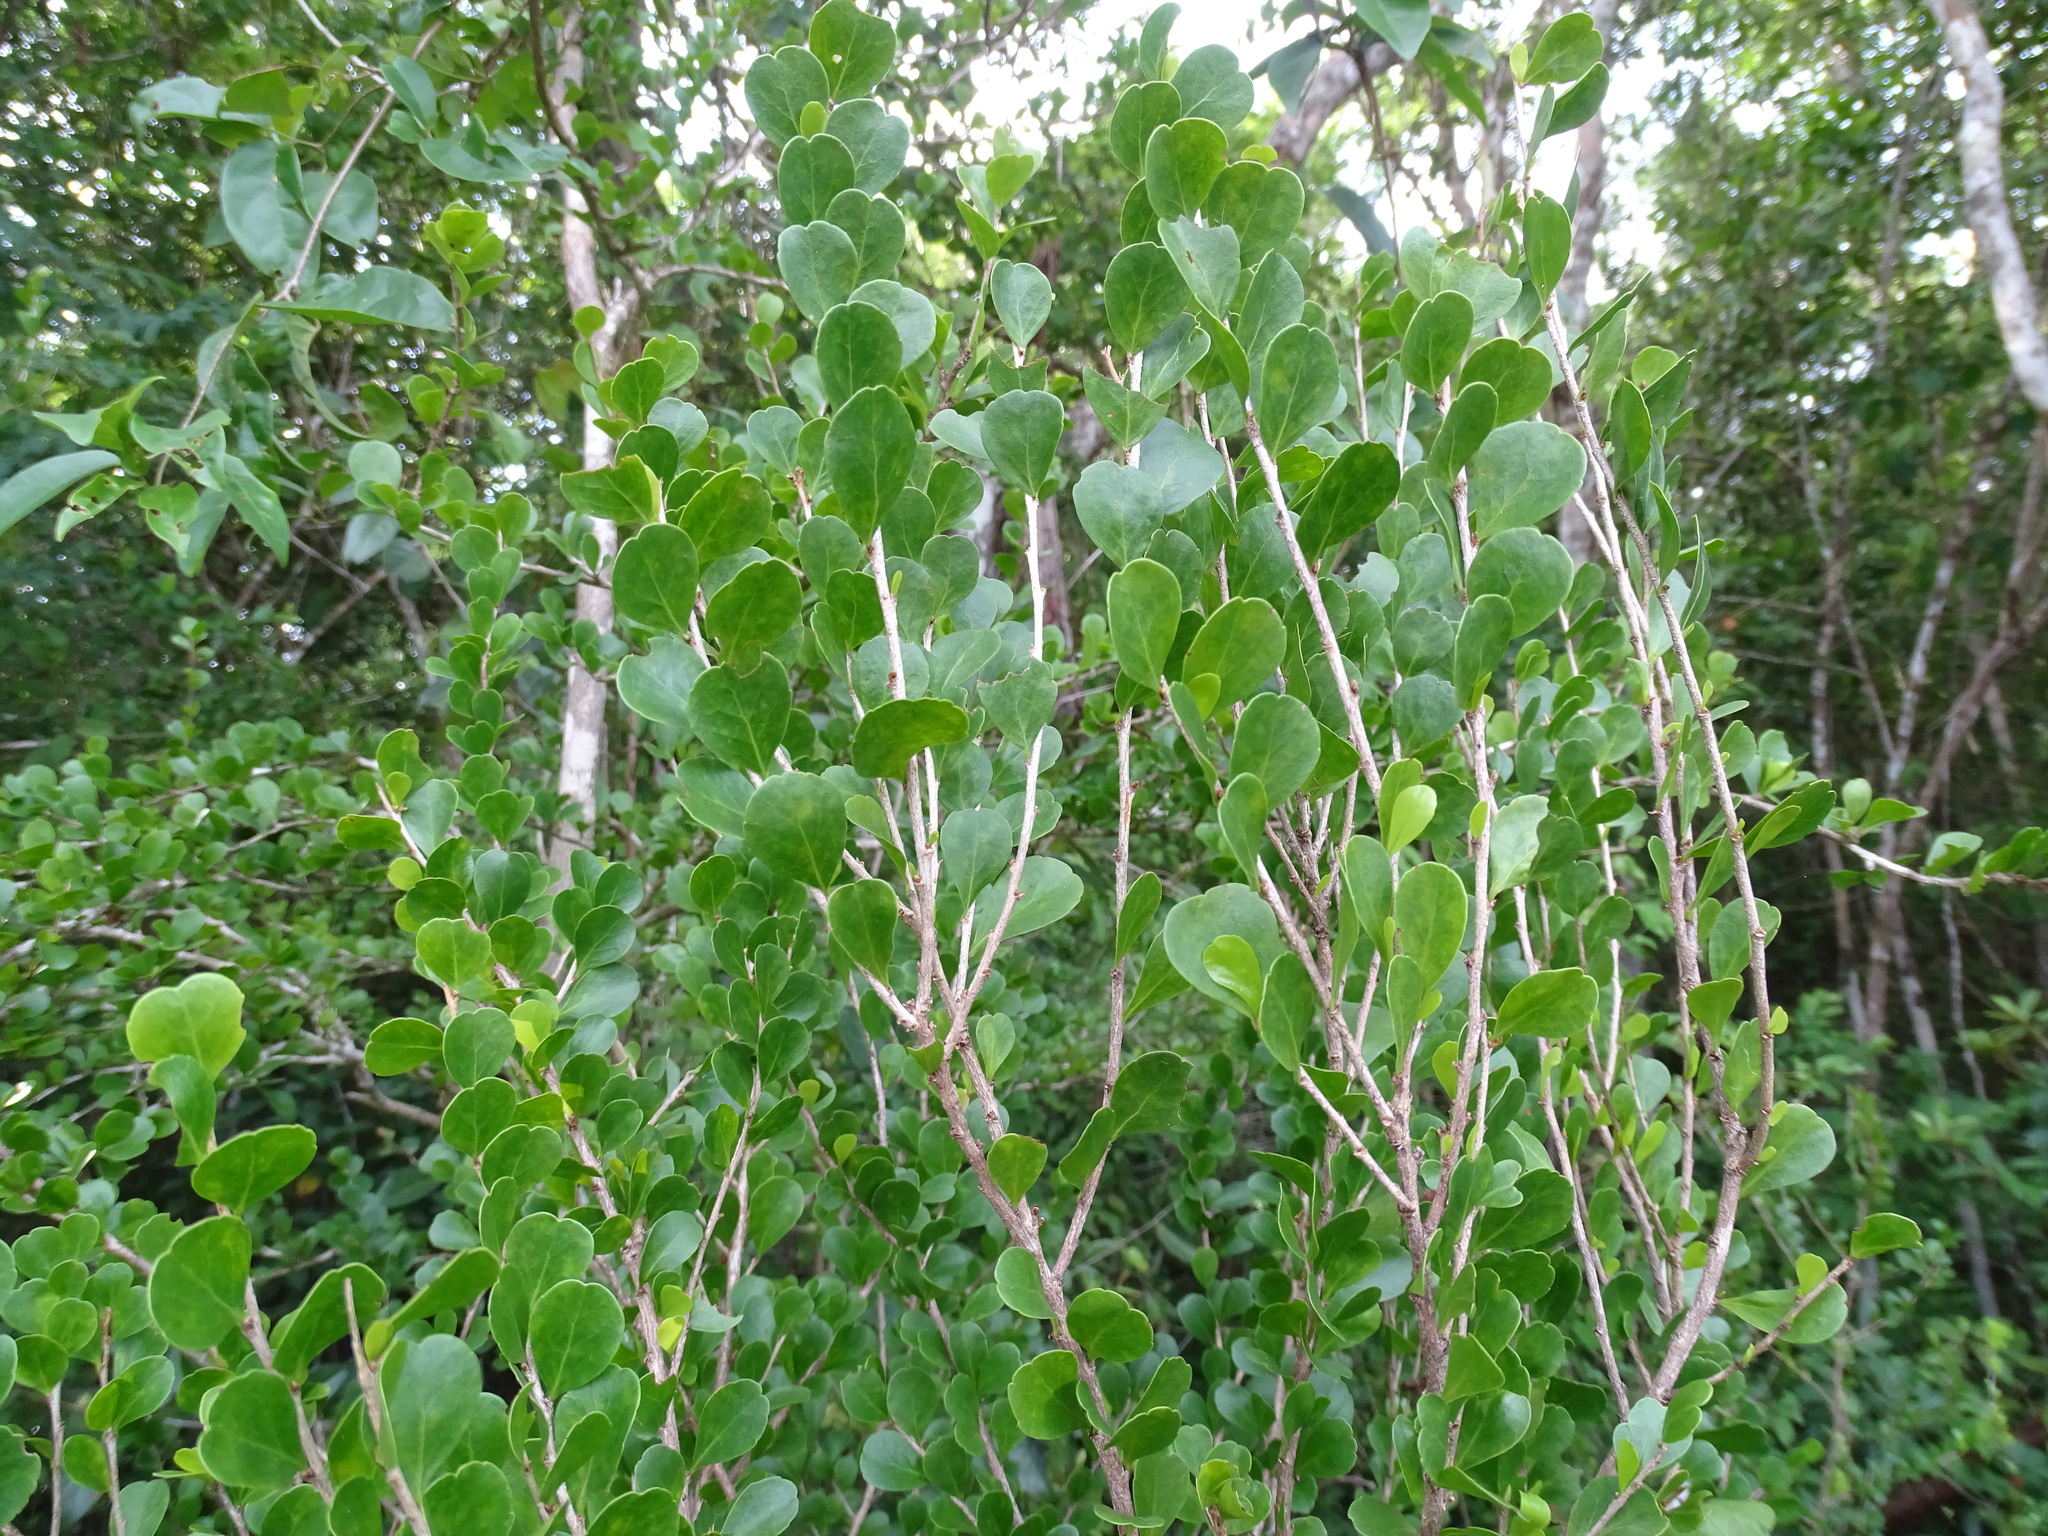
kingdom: Plantae
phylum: Tracheophyta
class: Magnoliopsida
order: Malpighiales
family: Salicaceae
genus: Casearia
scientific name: Casearia emarginata
